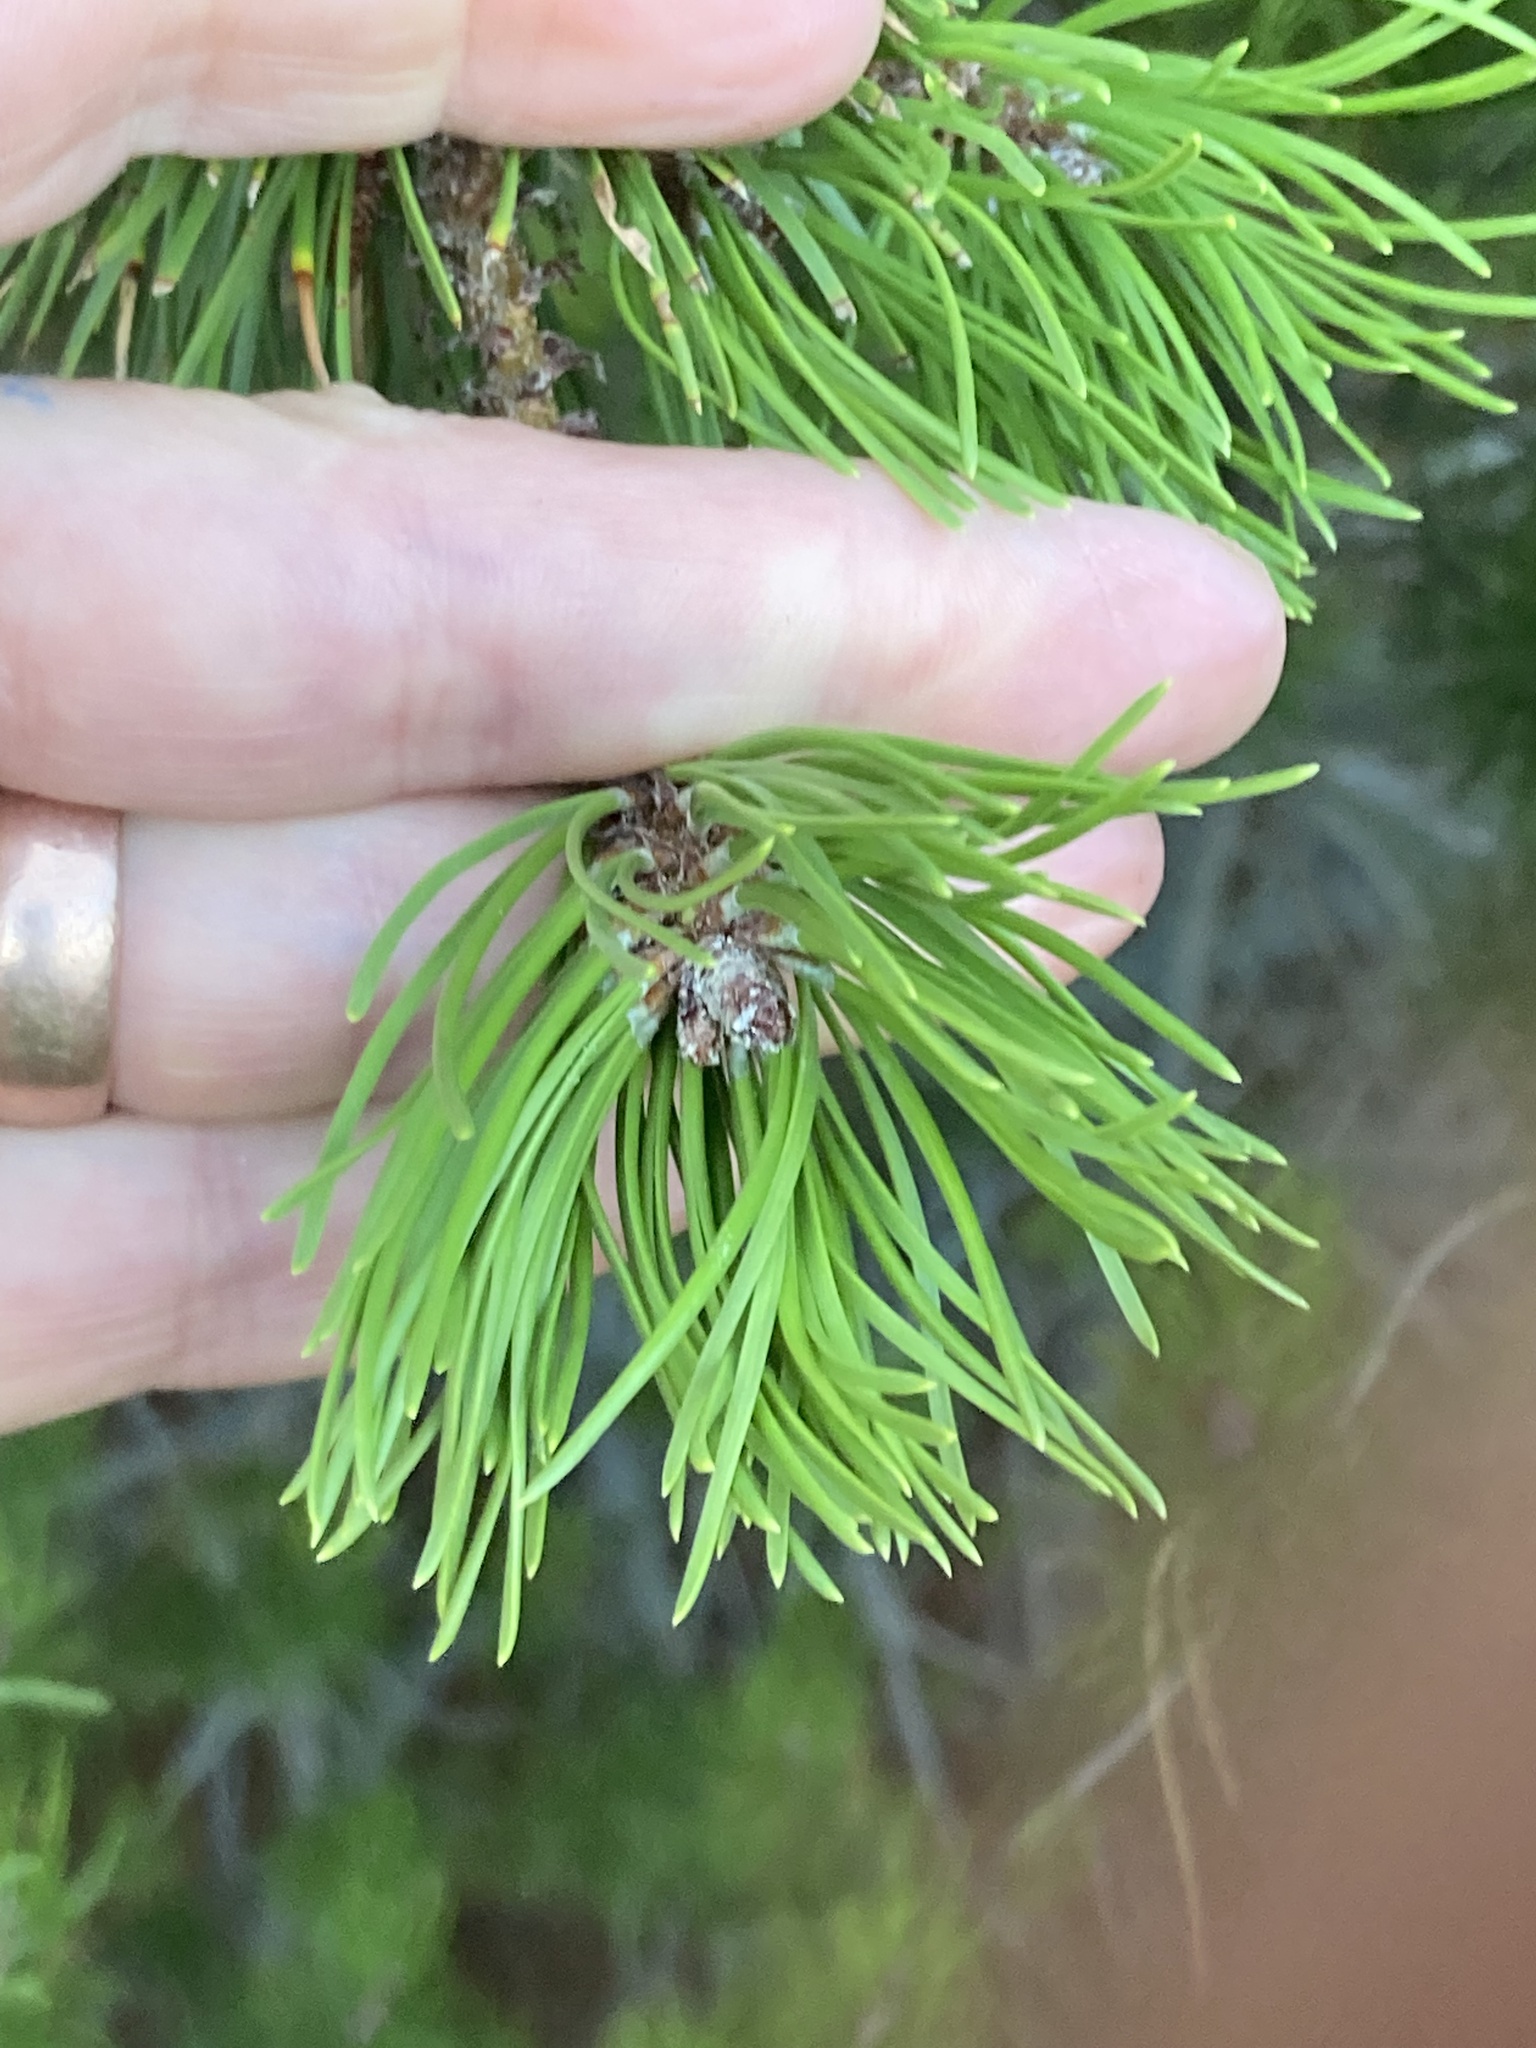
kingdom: Plantae
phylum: Tracheophyta
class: Pinopsida
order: Pinales
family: Pinaceae
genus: Pinus
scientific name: Pinus contorta
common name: Lodgepole pine
